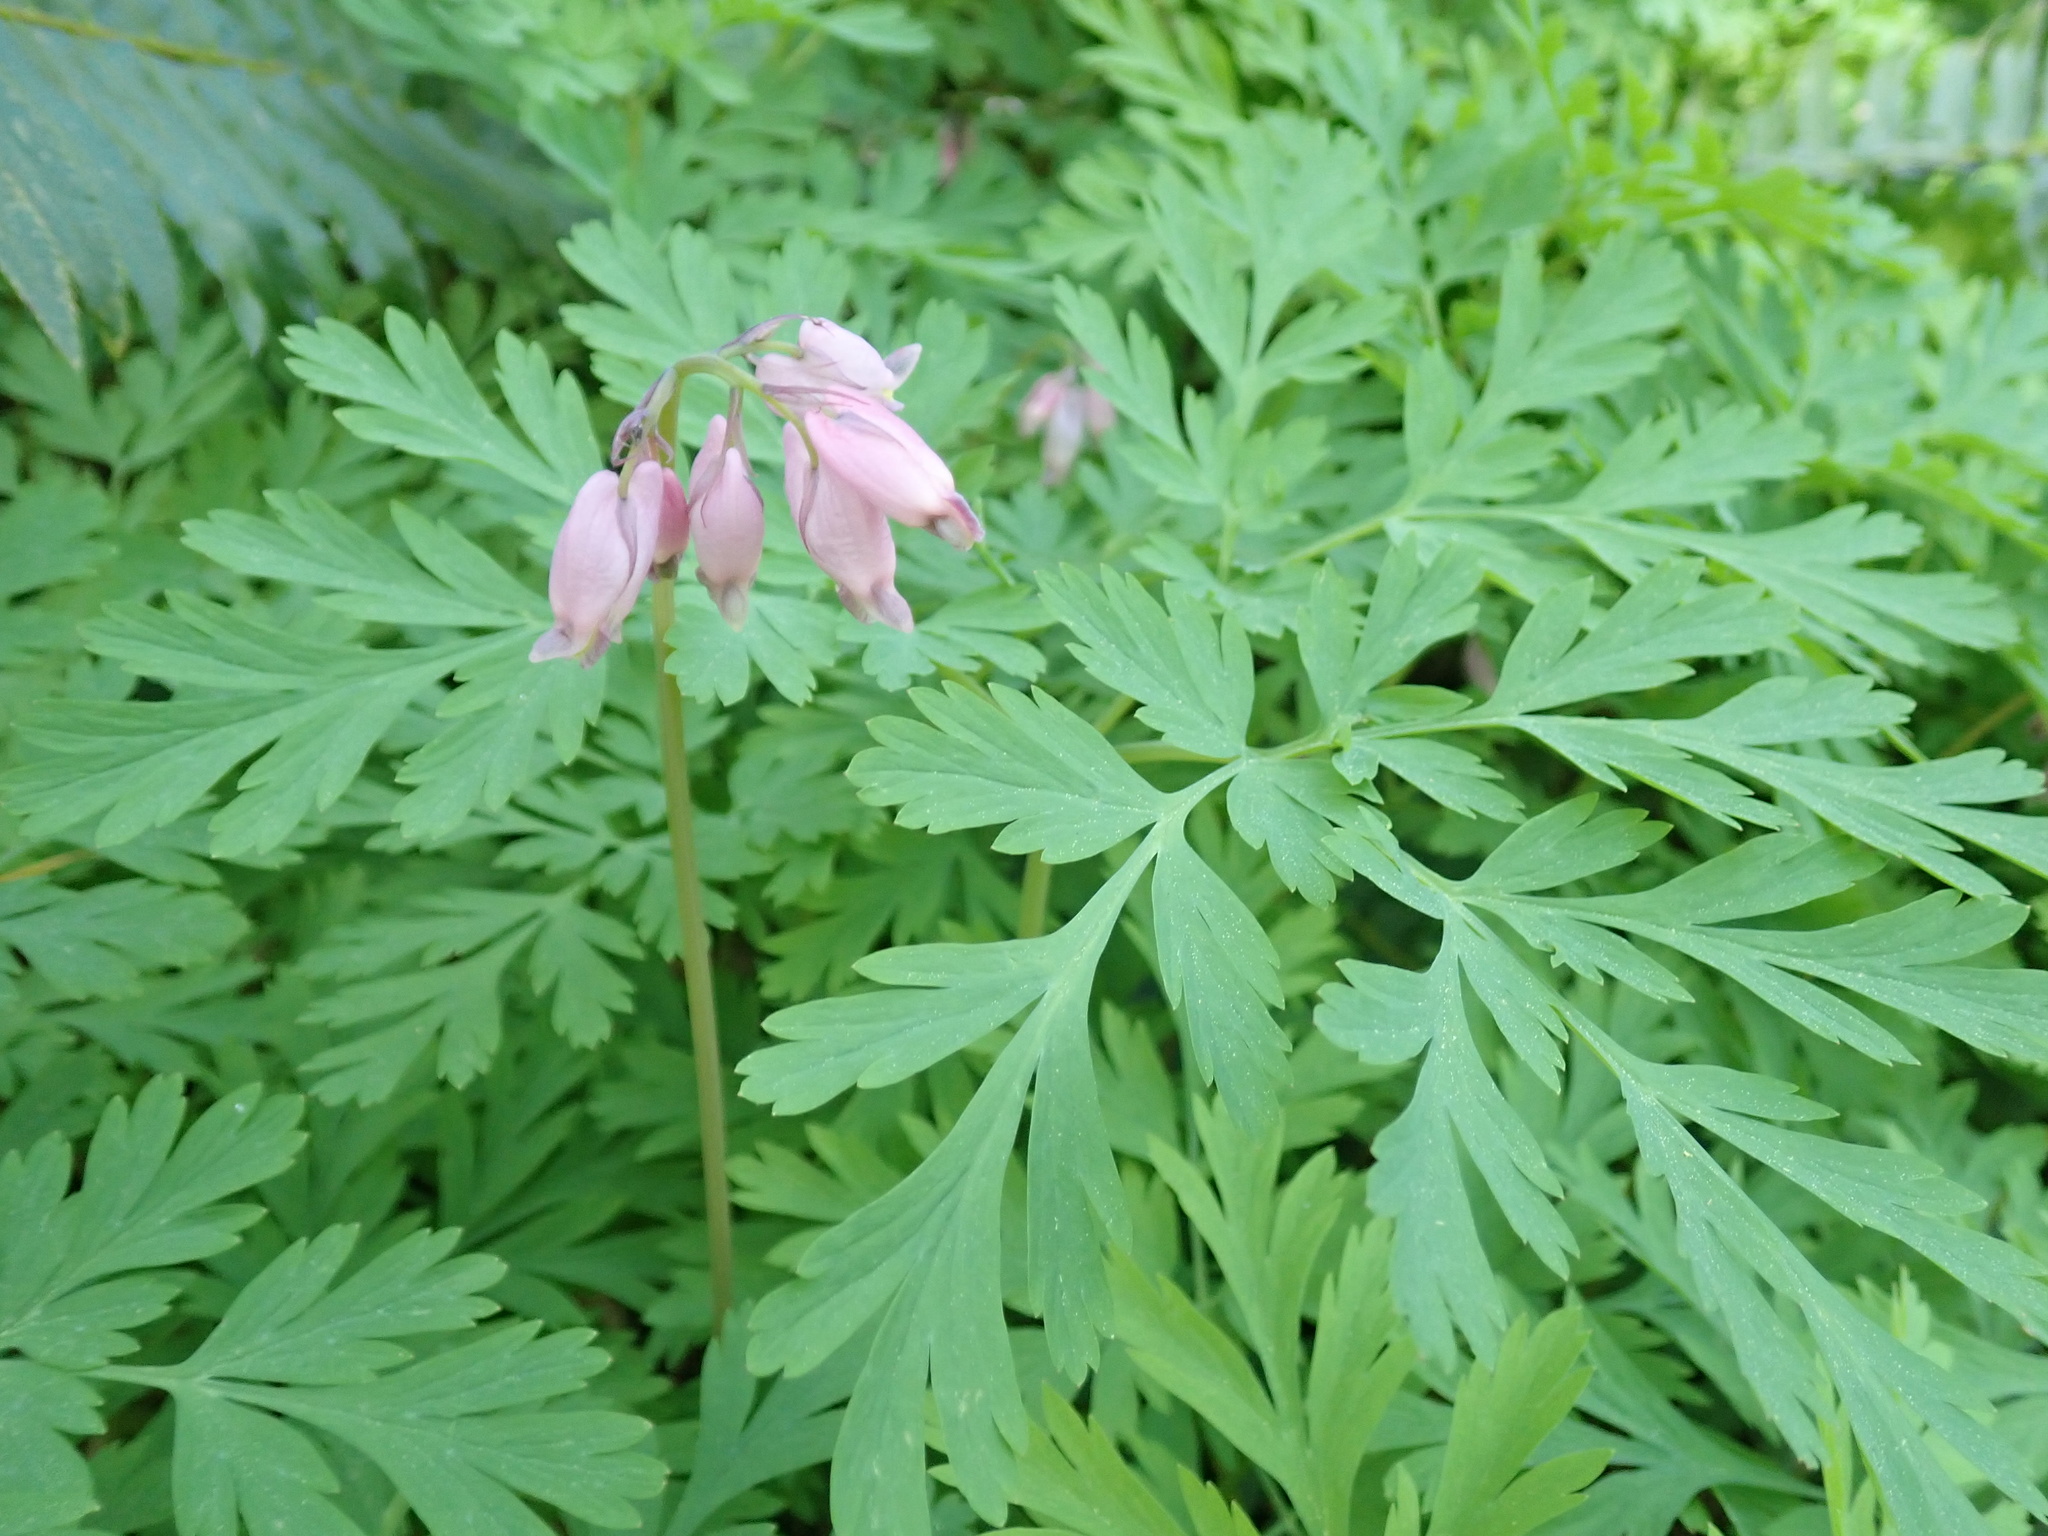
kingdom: Plantae
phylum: Tracheophyta
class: Magnoliopsida
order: Ranunculales
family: Papaveraceae
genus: Dicentra
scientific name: Dicentra formosa
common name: Bleeding-heart
